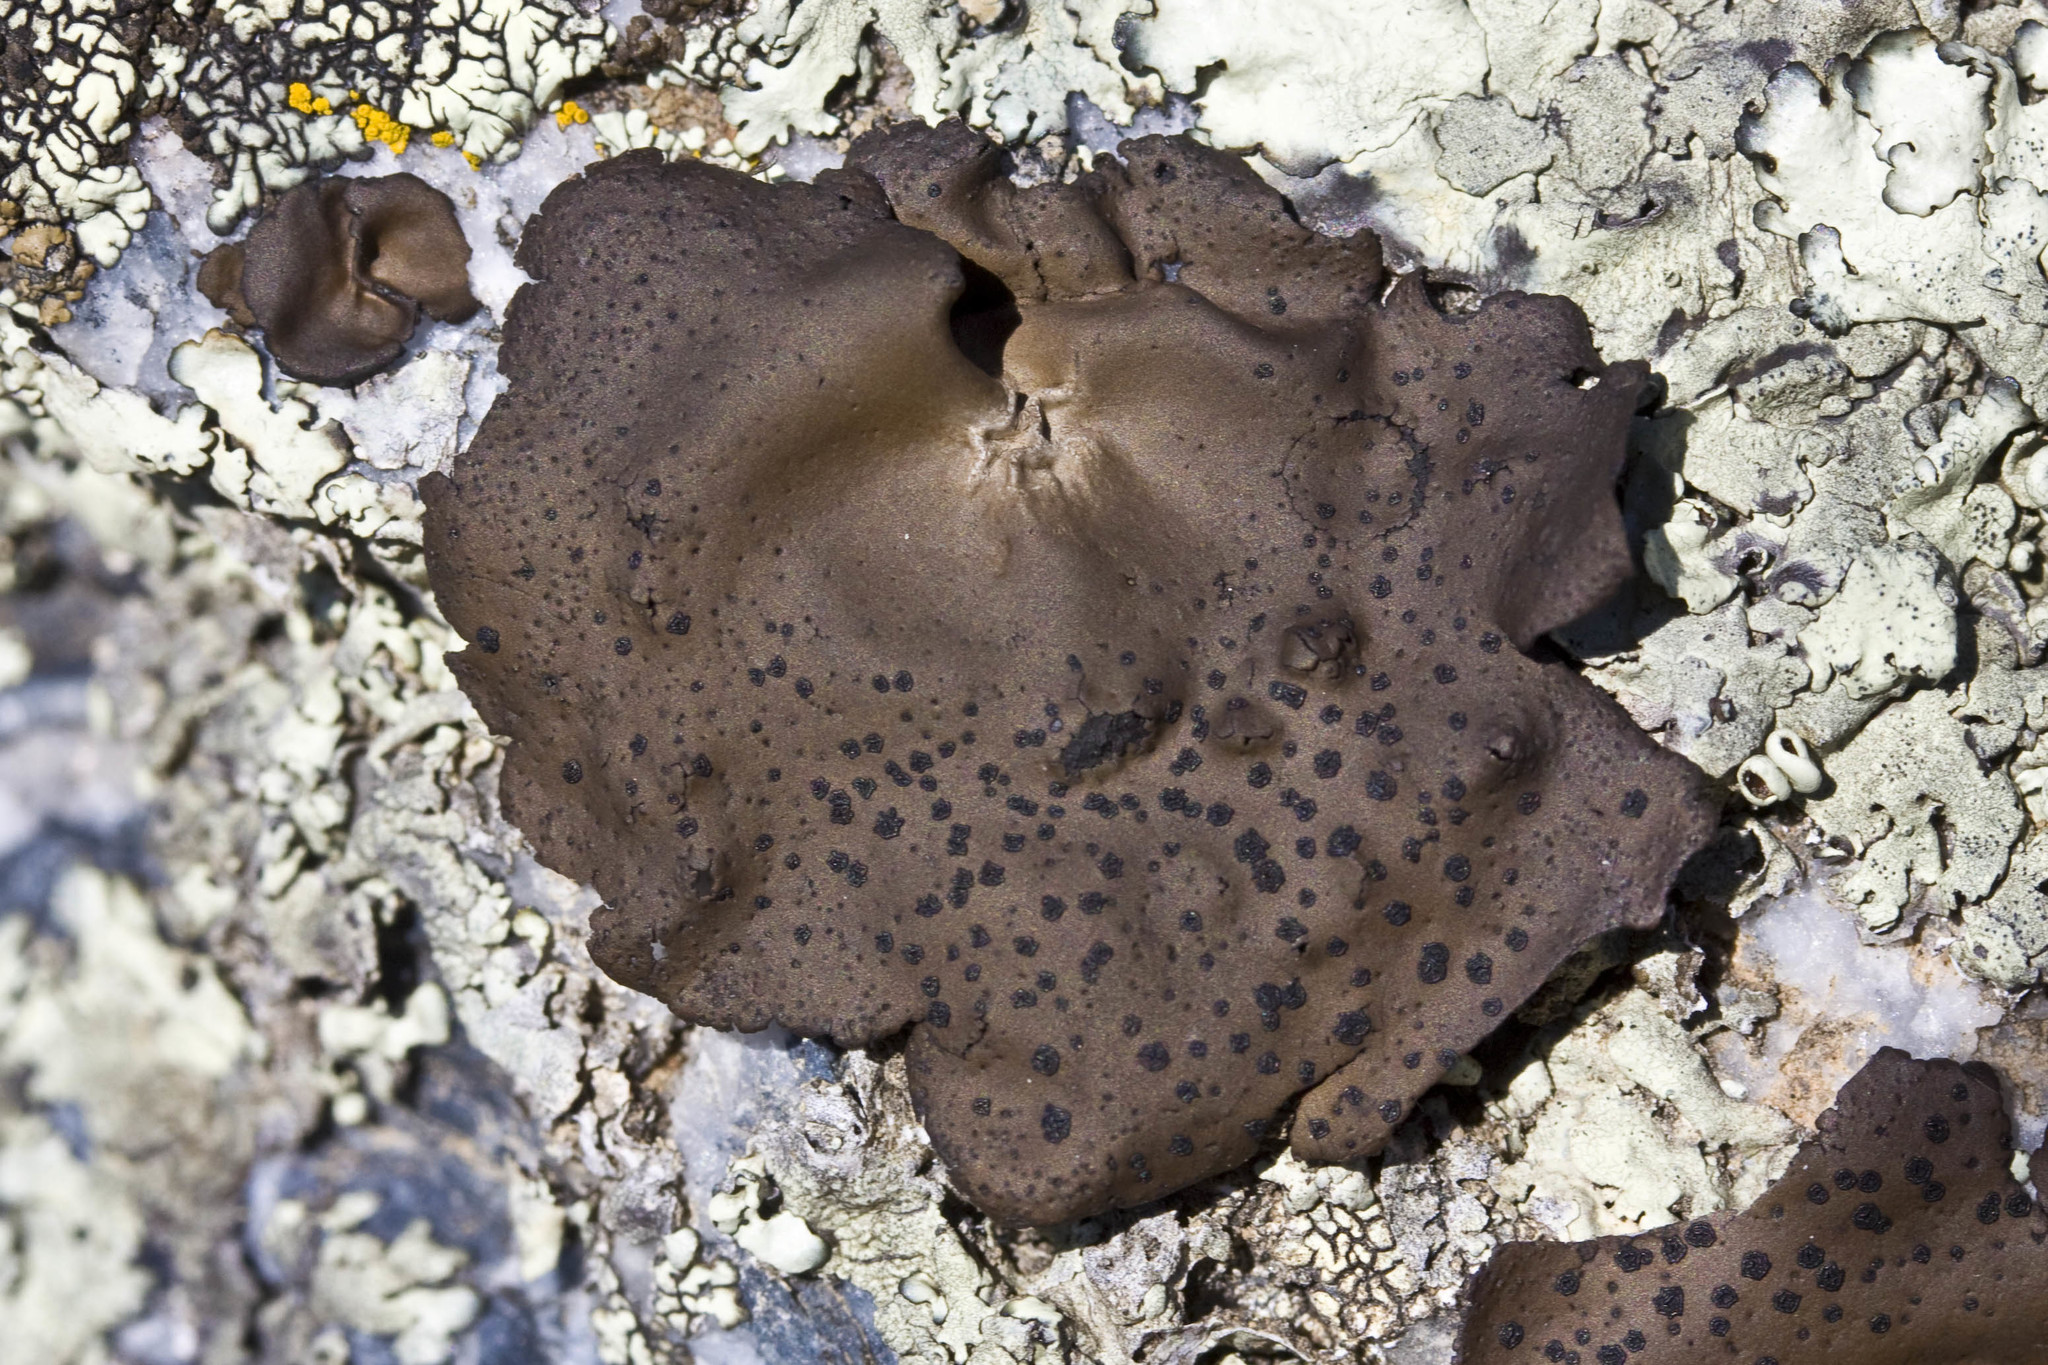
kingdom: Fungi
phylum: Ascomycota
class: Lecanoromycetes
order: Umbilicariales
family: Umbilicariaceae
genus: Umbilicaria
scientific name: Umbilicaria phaea
